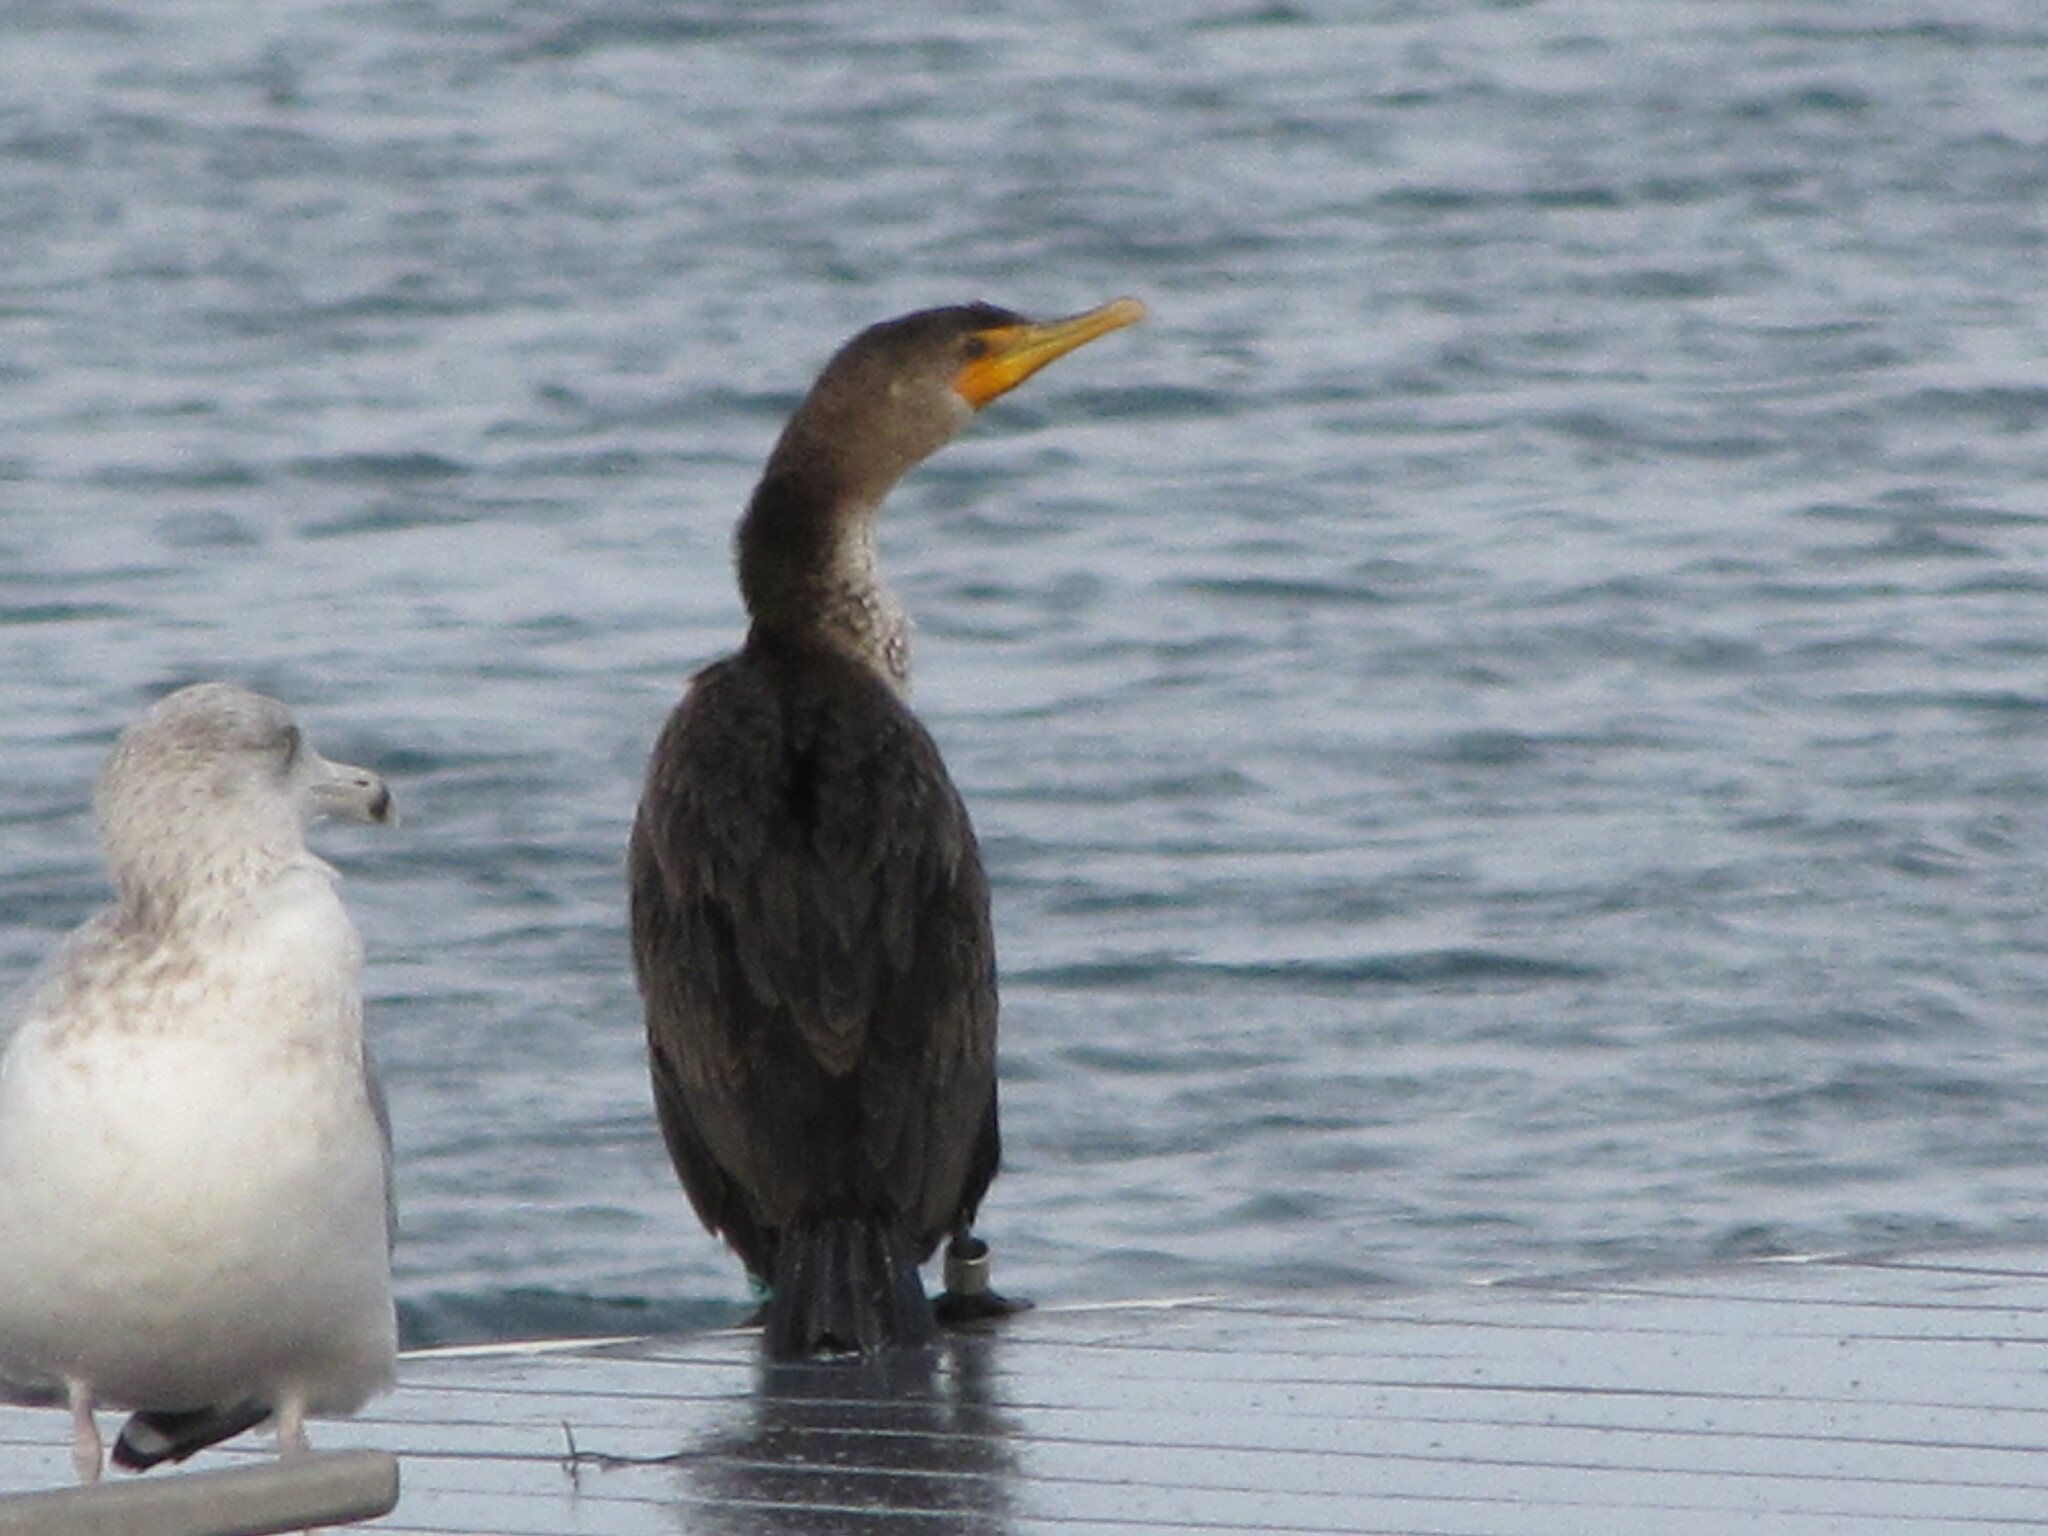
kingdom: Animalia
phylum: Chordata
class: Aves
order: Suliformes
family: Phalacrocoracidae
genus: Phalacrocorax
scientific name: Phalacrocorax auritus
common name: Double-crested cormorant
